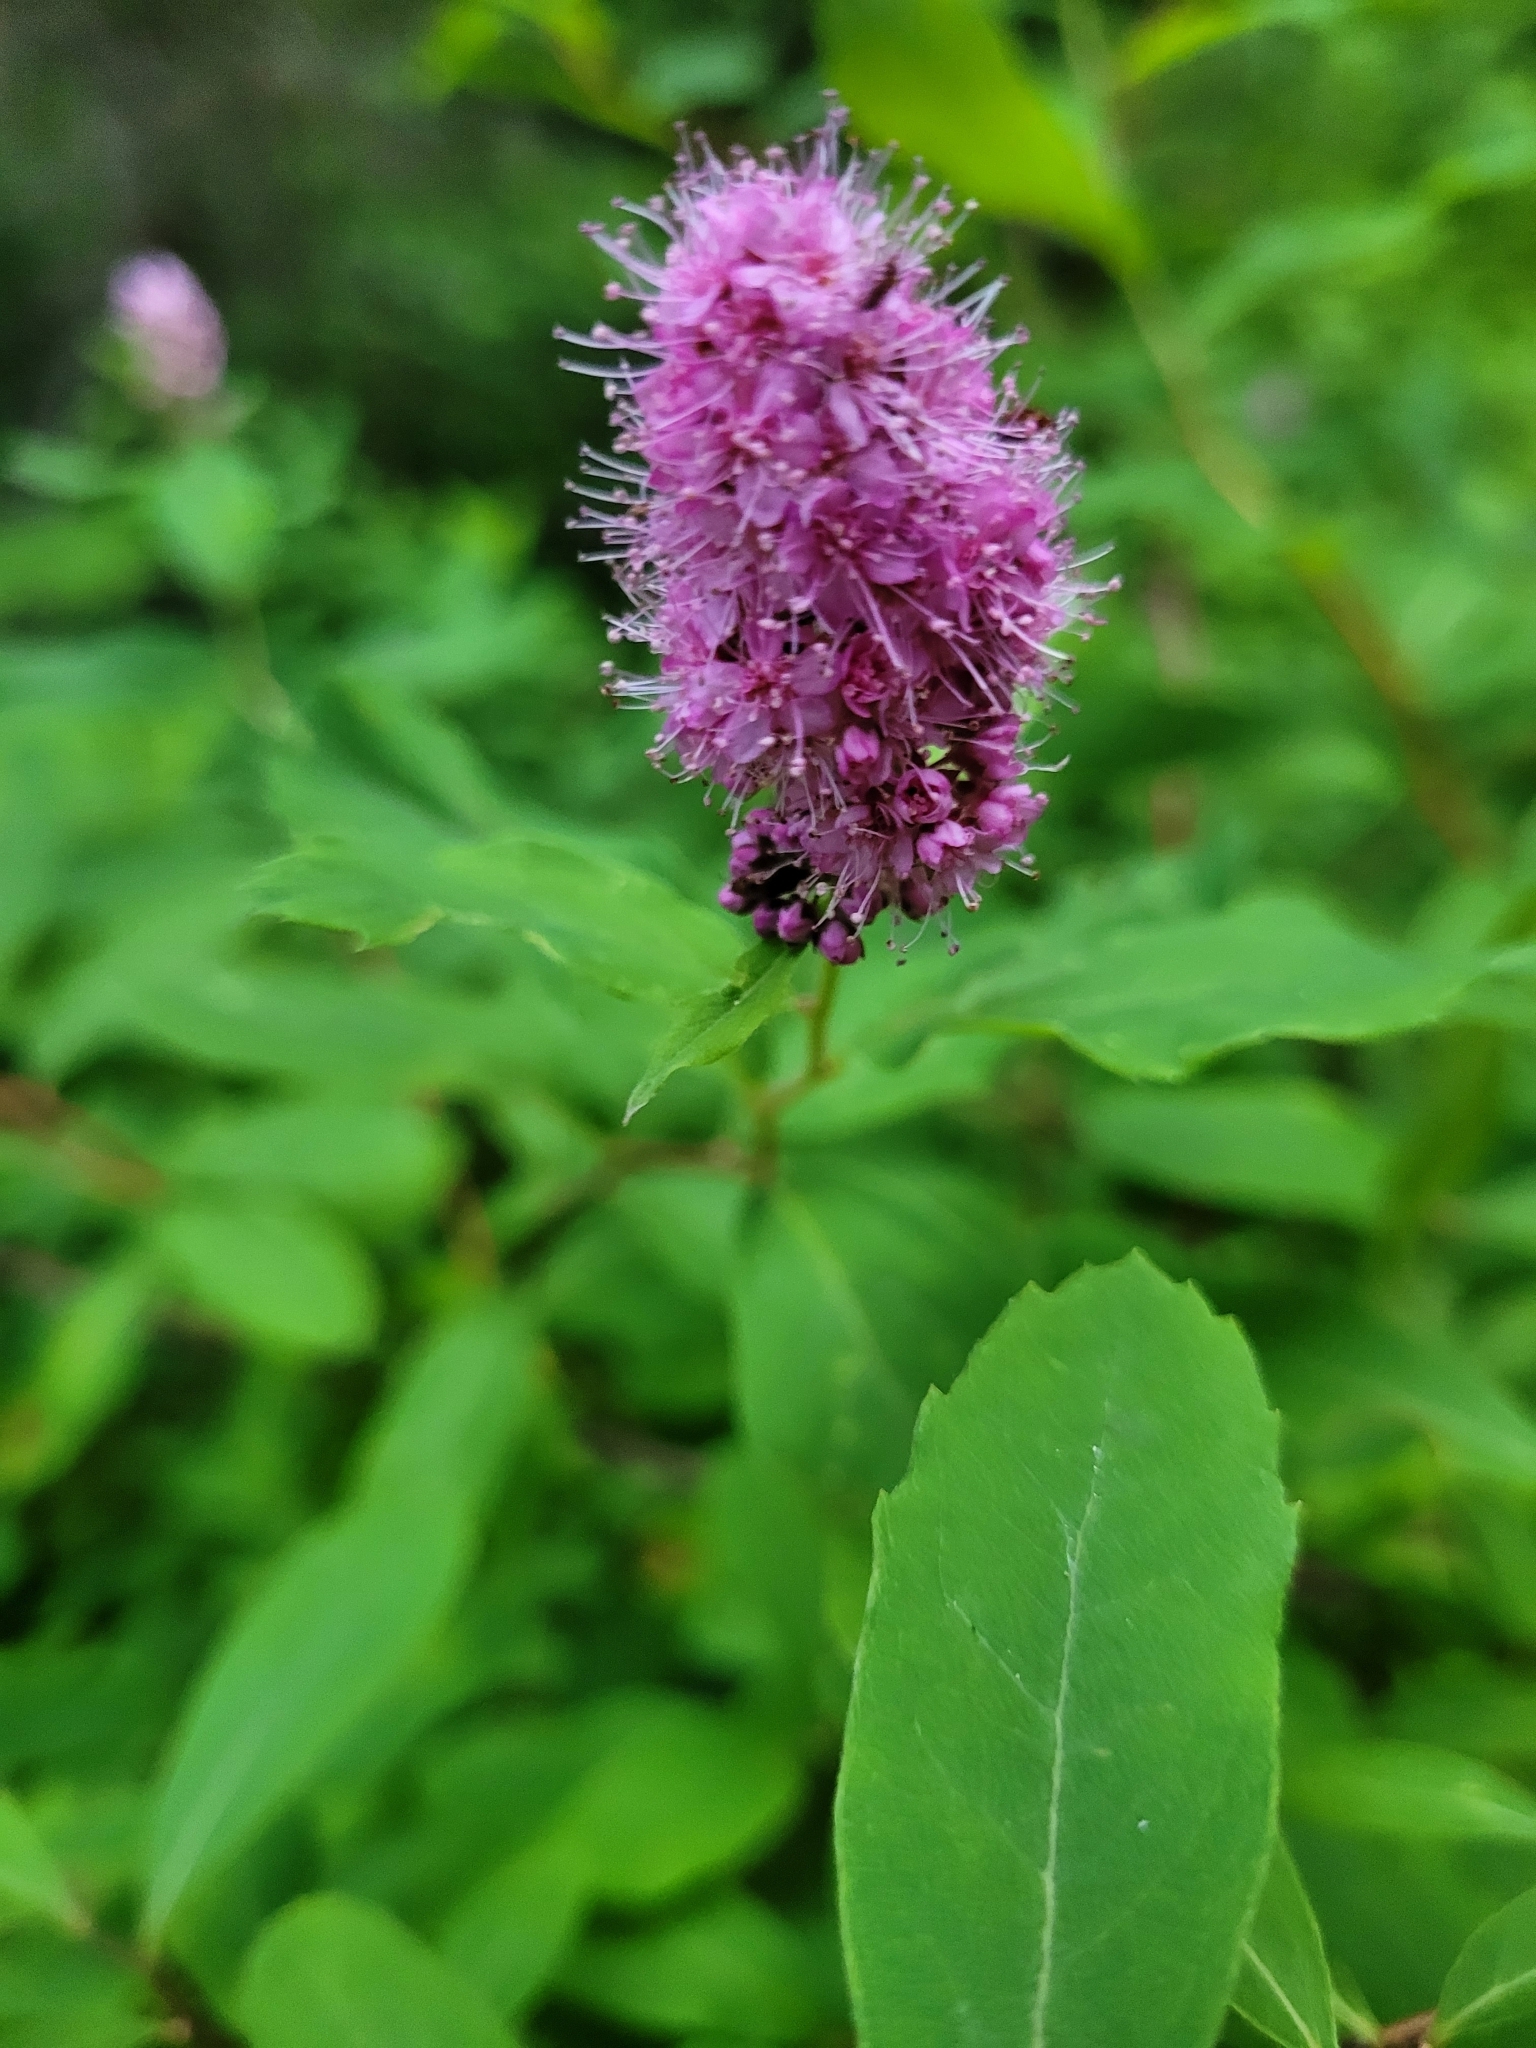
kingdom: Plantae
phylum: Tracheophyta
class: Magnoliopsida
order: Rosales
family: Rosaceae
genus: Spiraea
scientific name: Spiraea douglasii
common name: Steeplebush
